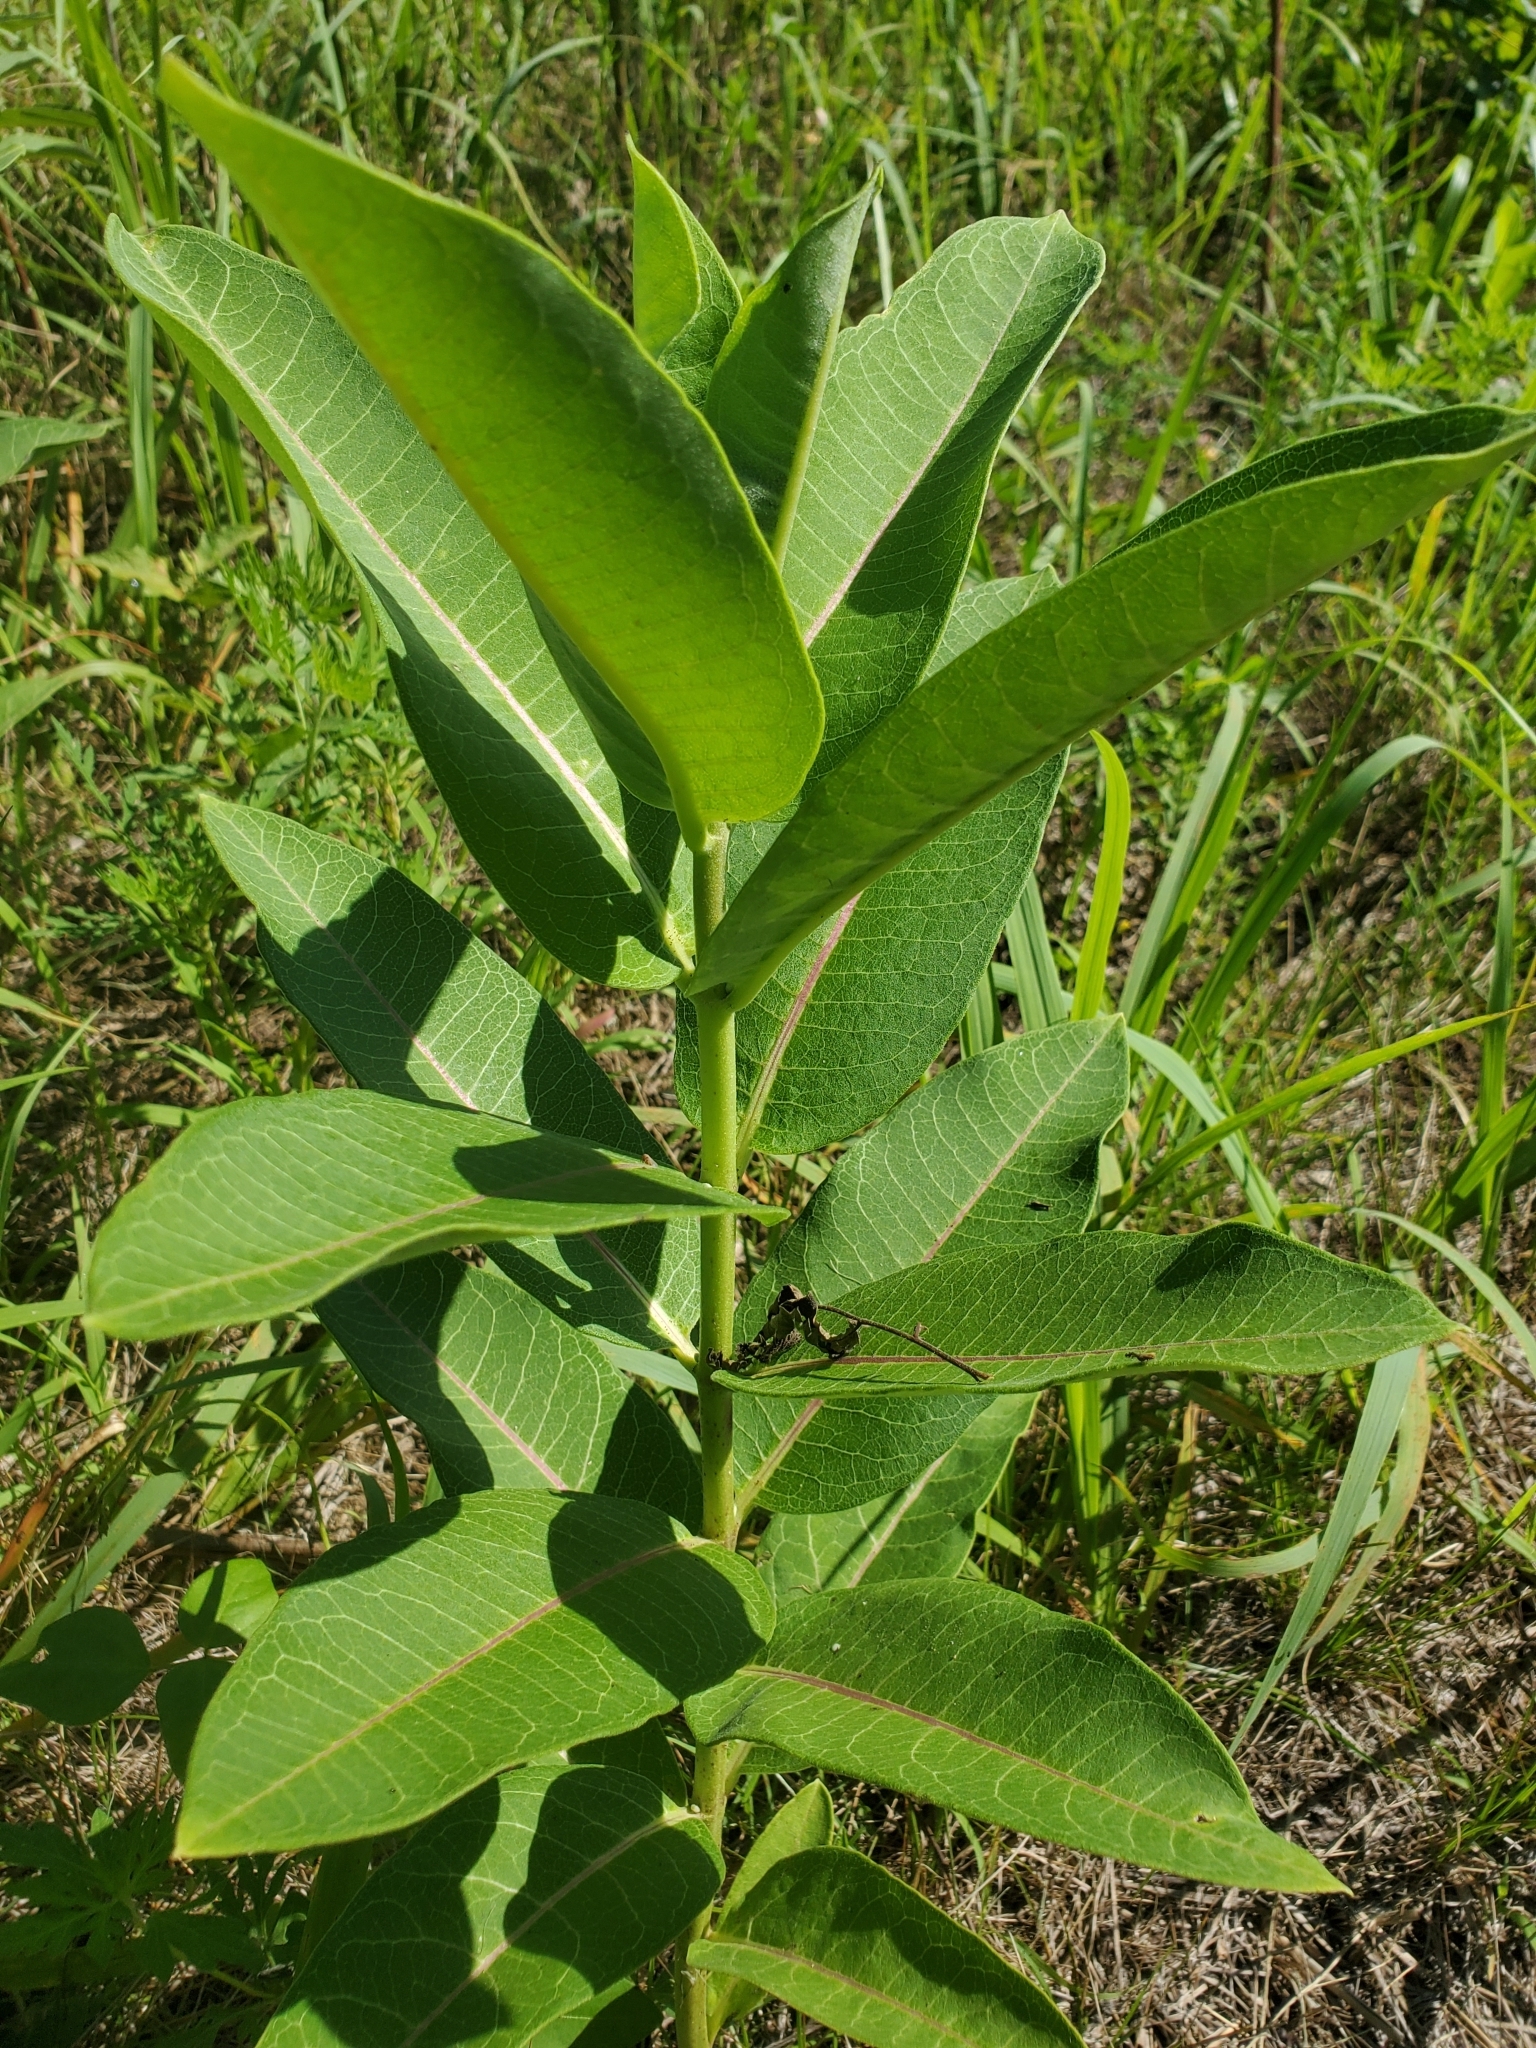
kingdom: Plantae
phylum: Tracheophyta
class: Magnoliopsida
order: Gentianales
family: Apocynaceae
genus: Asclepias
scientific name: Asclepias syriaca
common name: Common milkweed
